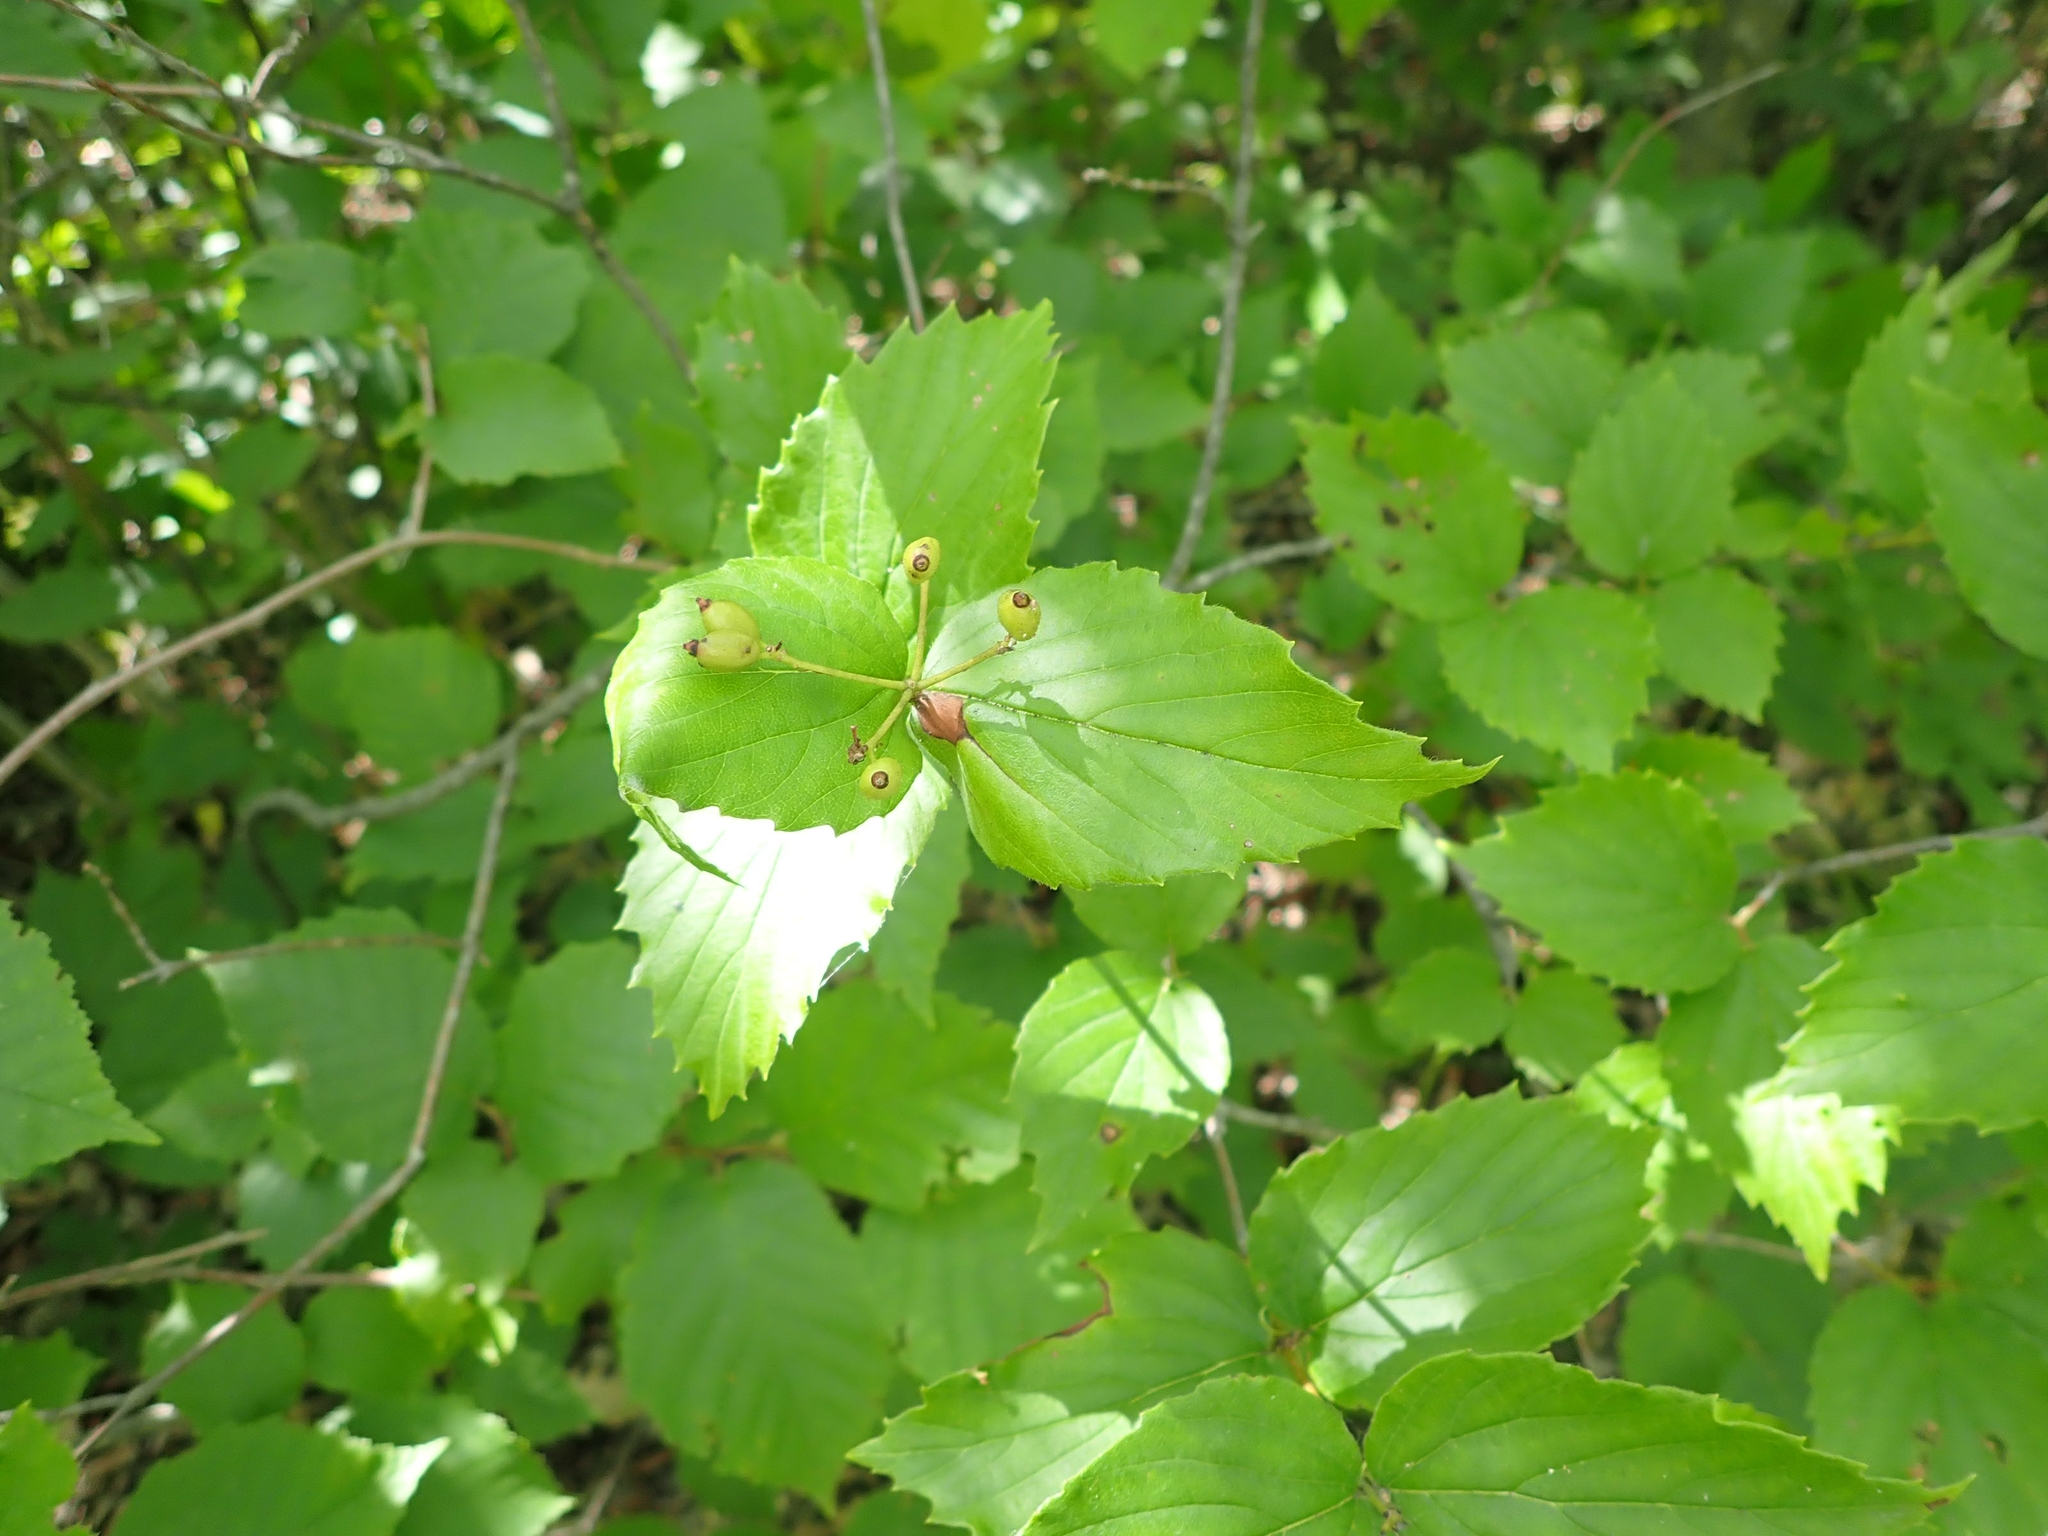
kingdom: Plantae
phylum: Tracheophyta
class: Magnoliopsida
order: Dipsacales
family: Viburnaceae
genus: Viburnum
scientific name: Viburnum rafinesqueanum
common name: Downy arrow-wood
